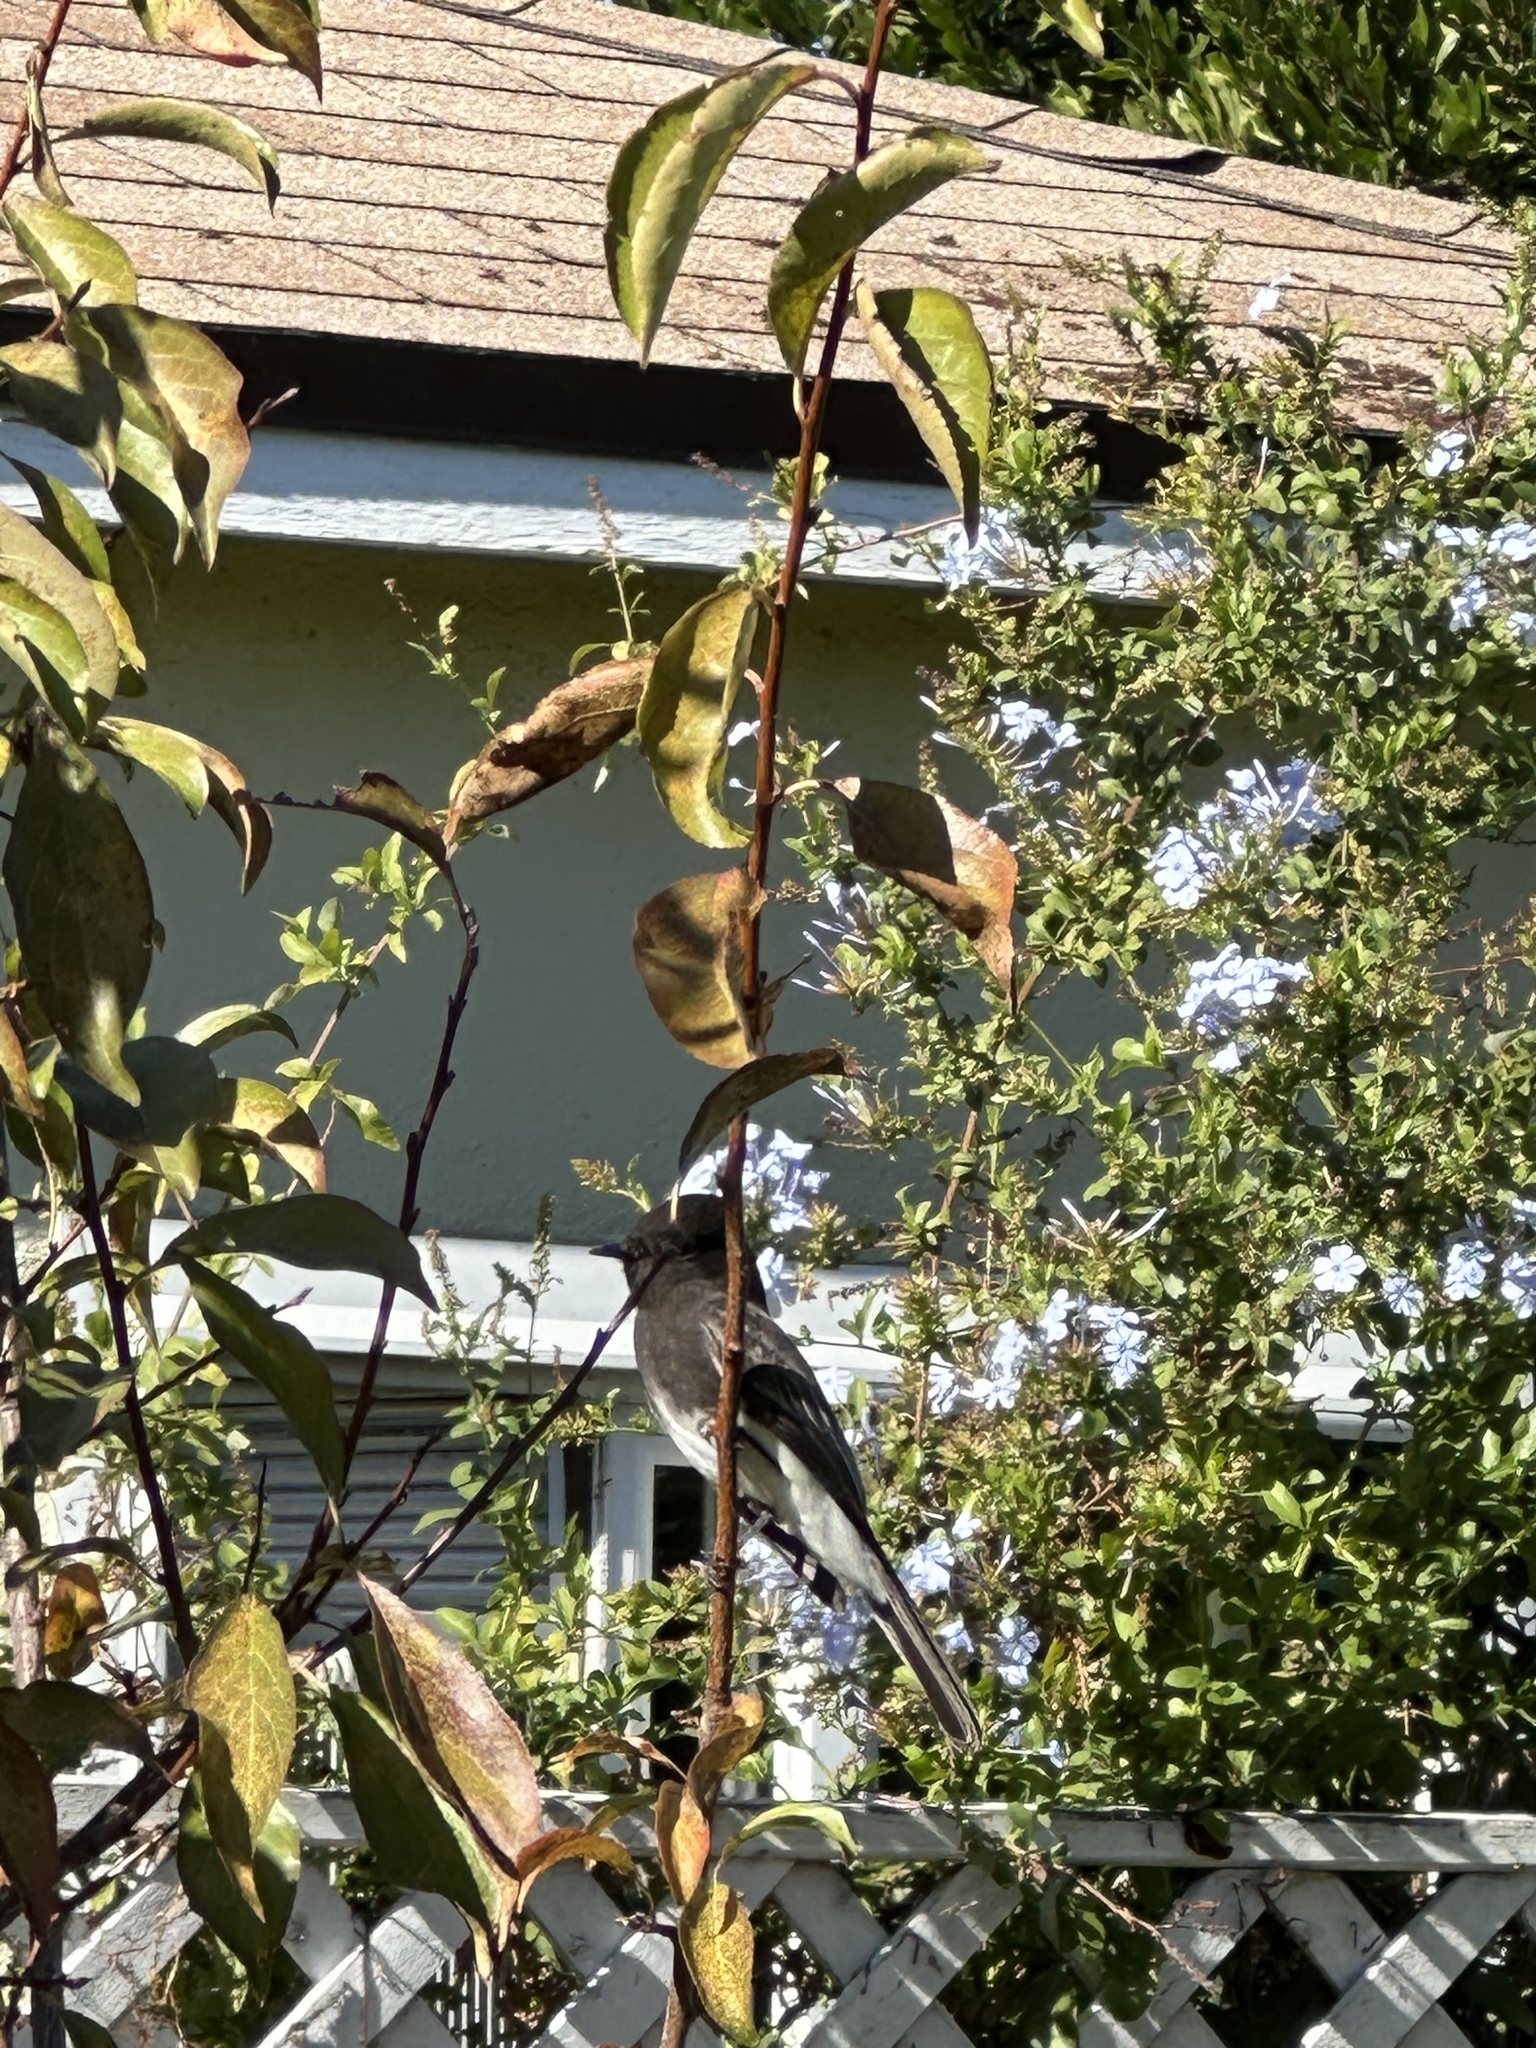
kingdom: Animalia
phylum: Chordata
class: Aves
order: Passeriformes
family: Tyrannidae
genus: Sayornis
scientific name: Sayornis nigricans
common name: Black phoebe
